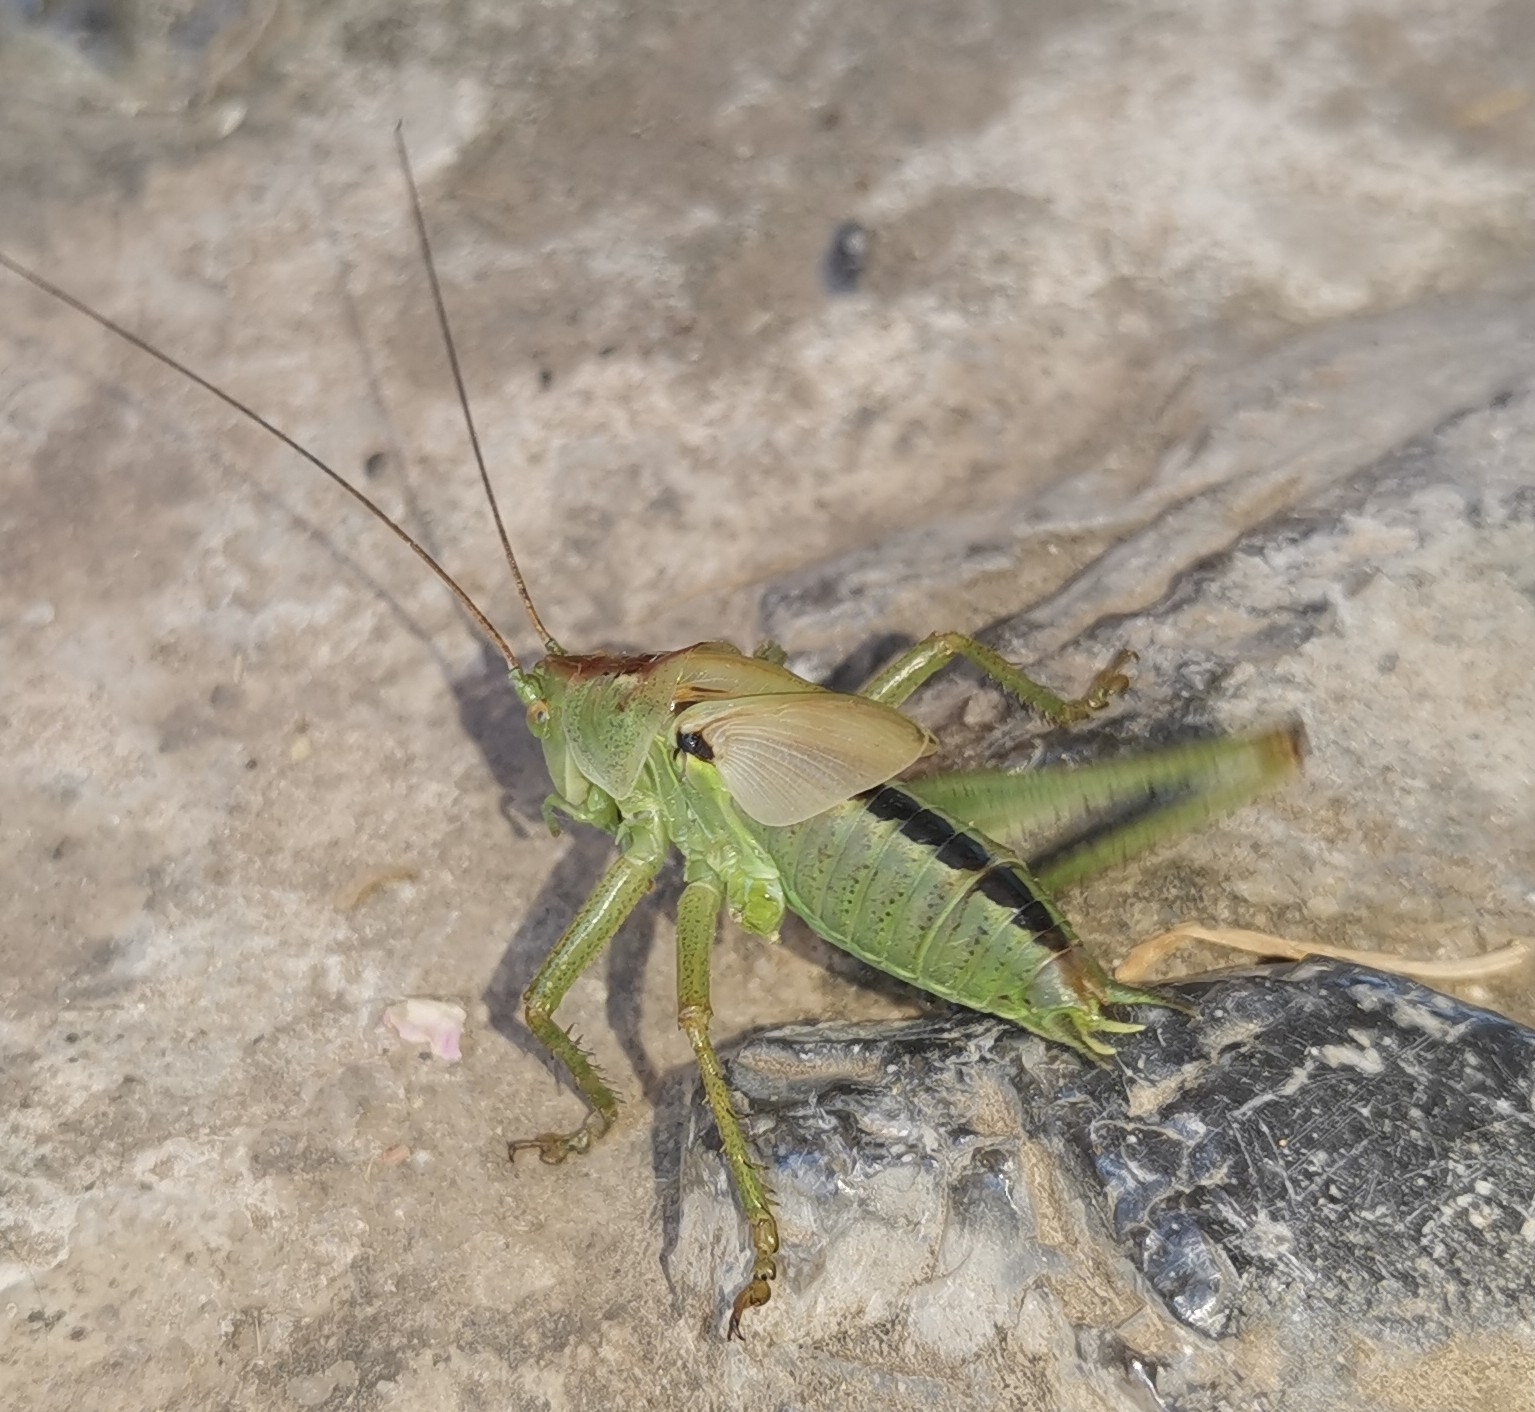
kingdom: Animalia
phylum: Arthropoda
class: Insecta
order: Orthoptera
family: Tettigoniidae
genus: Tettigonia
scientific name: Tettigonia viridissima
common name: Great green bush-cricket
